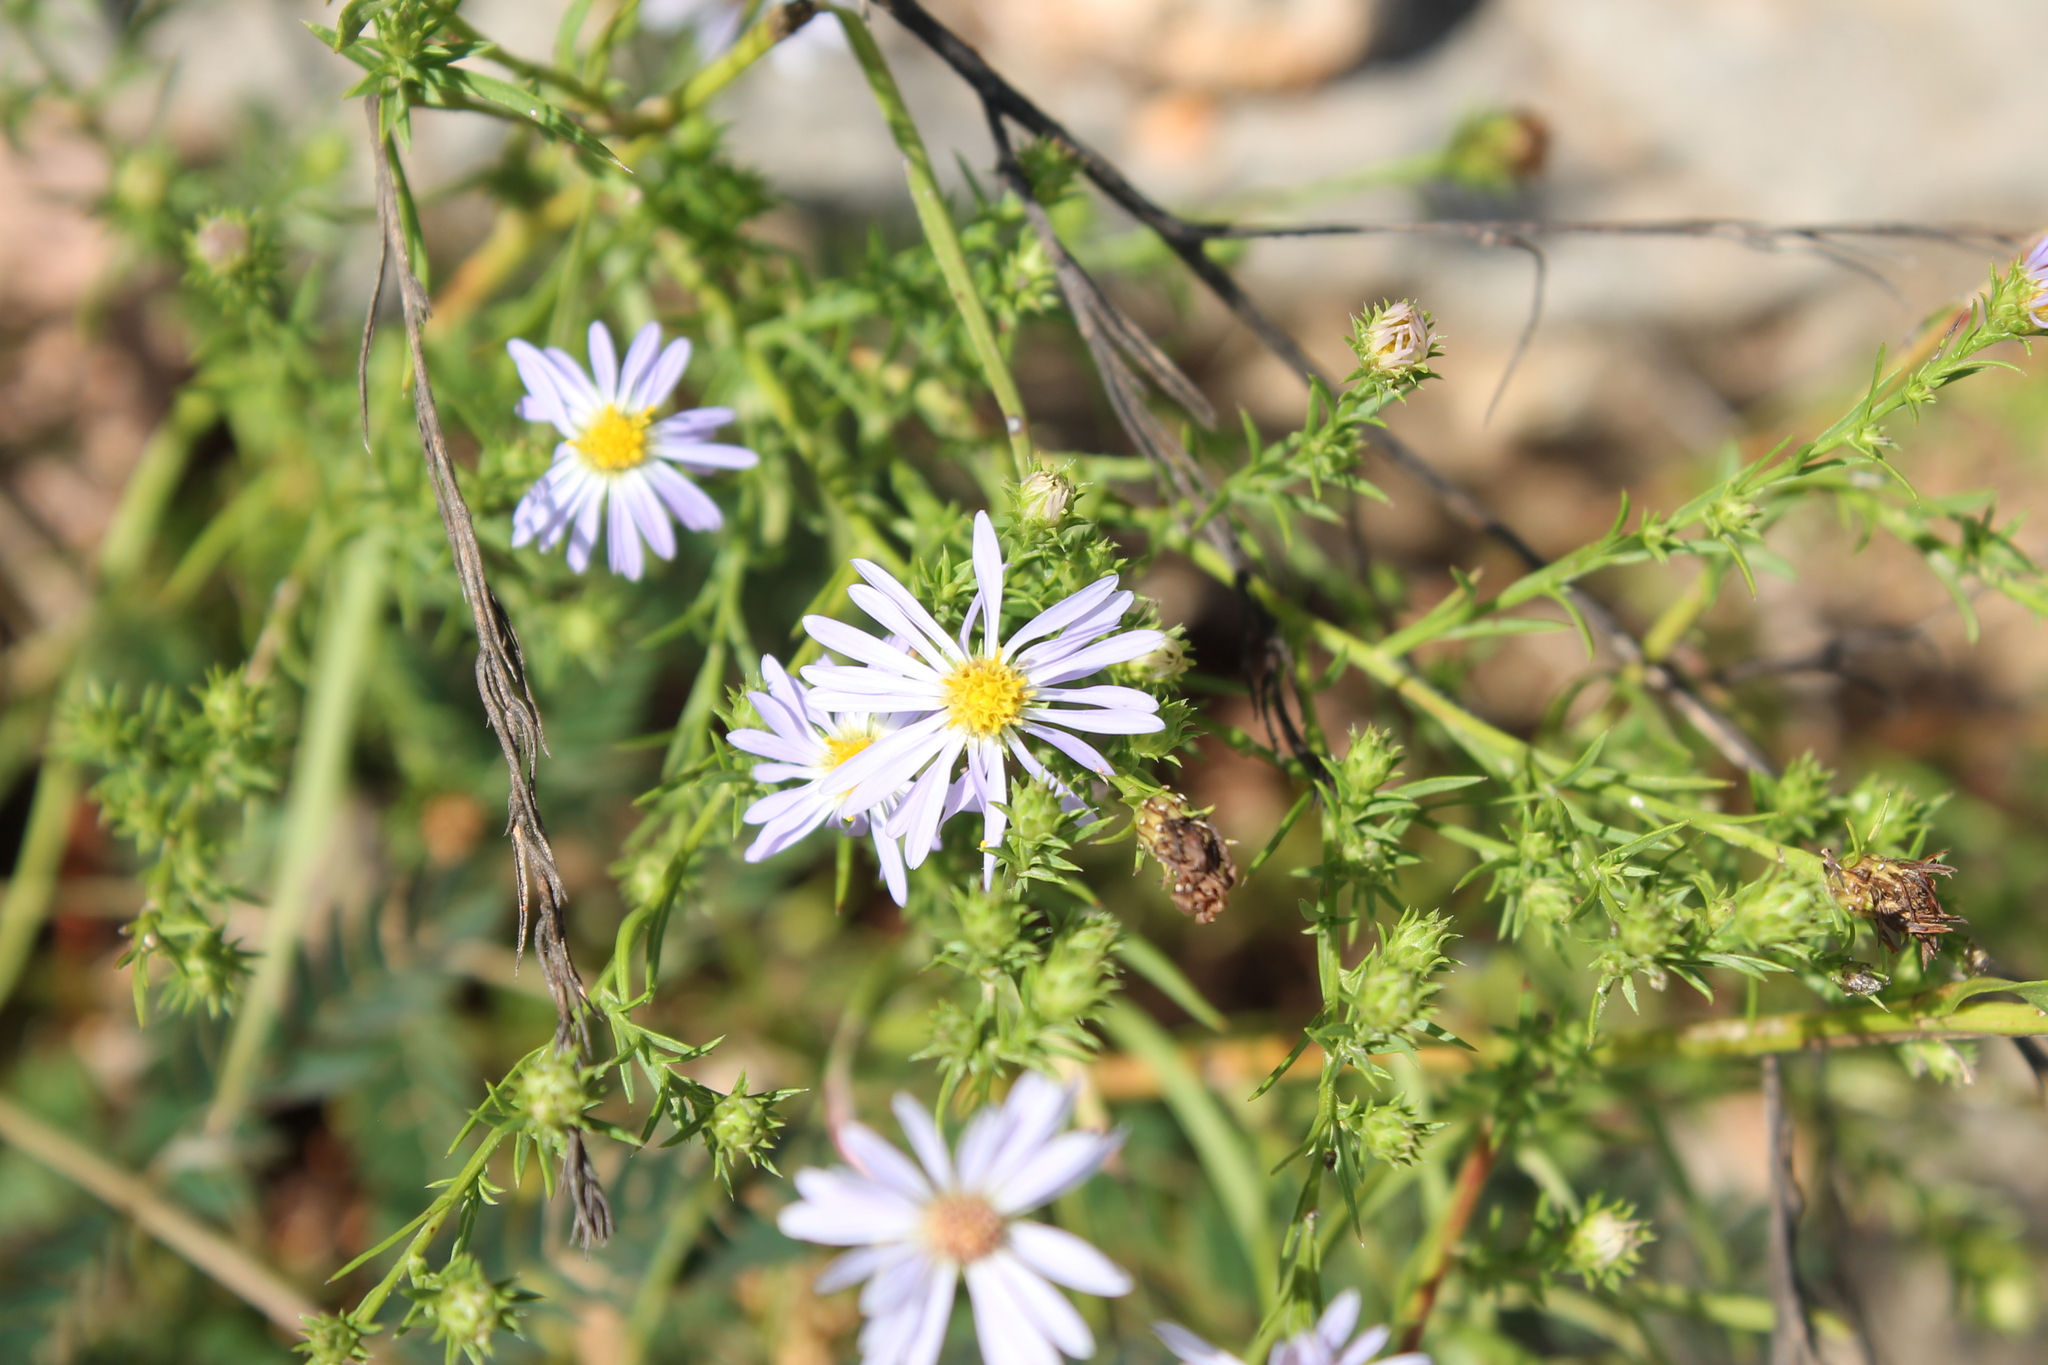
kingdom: Plantae
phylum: Tracheophyta
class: Magnoliopsida
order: Asterales
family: Asteraceae
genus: Symphyotrichum
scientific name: Symphyotrichum kentuckiense
